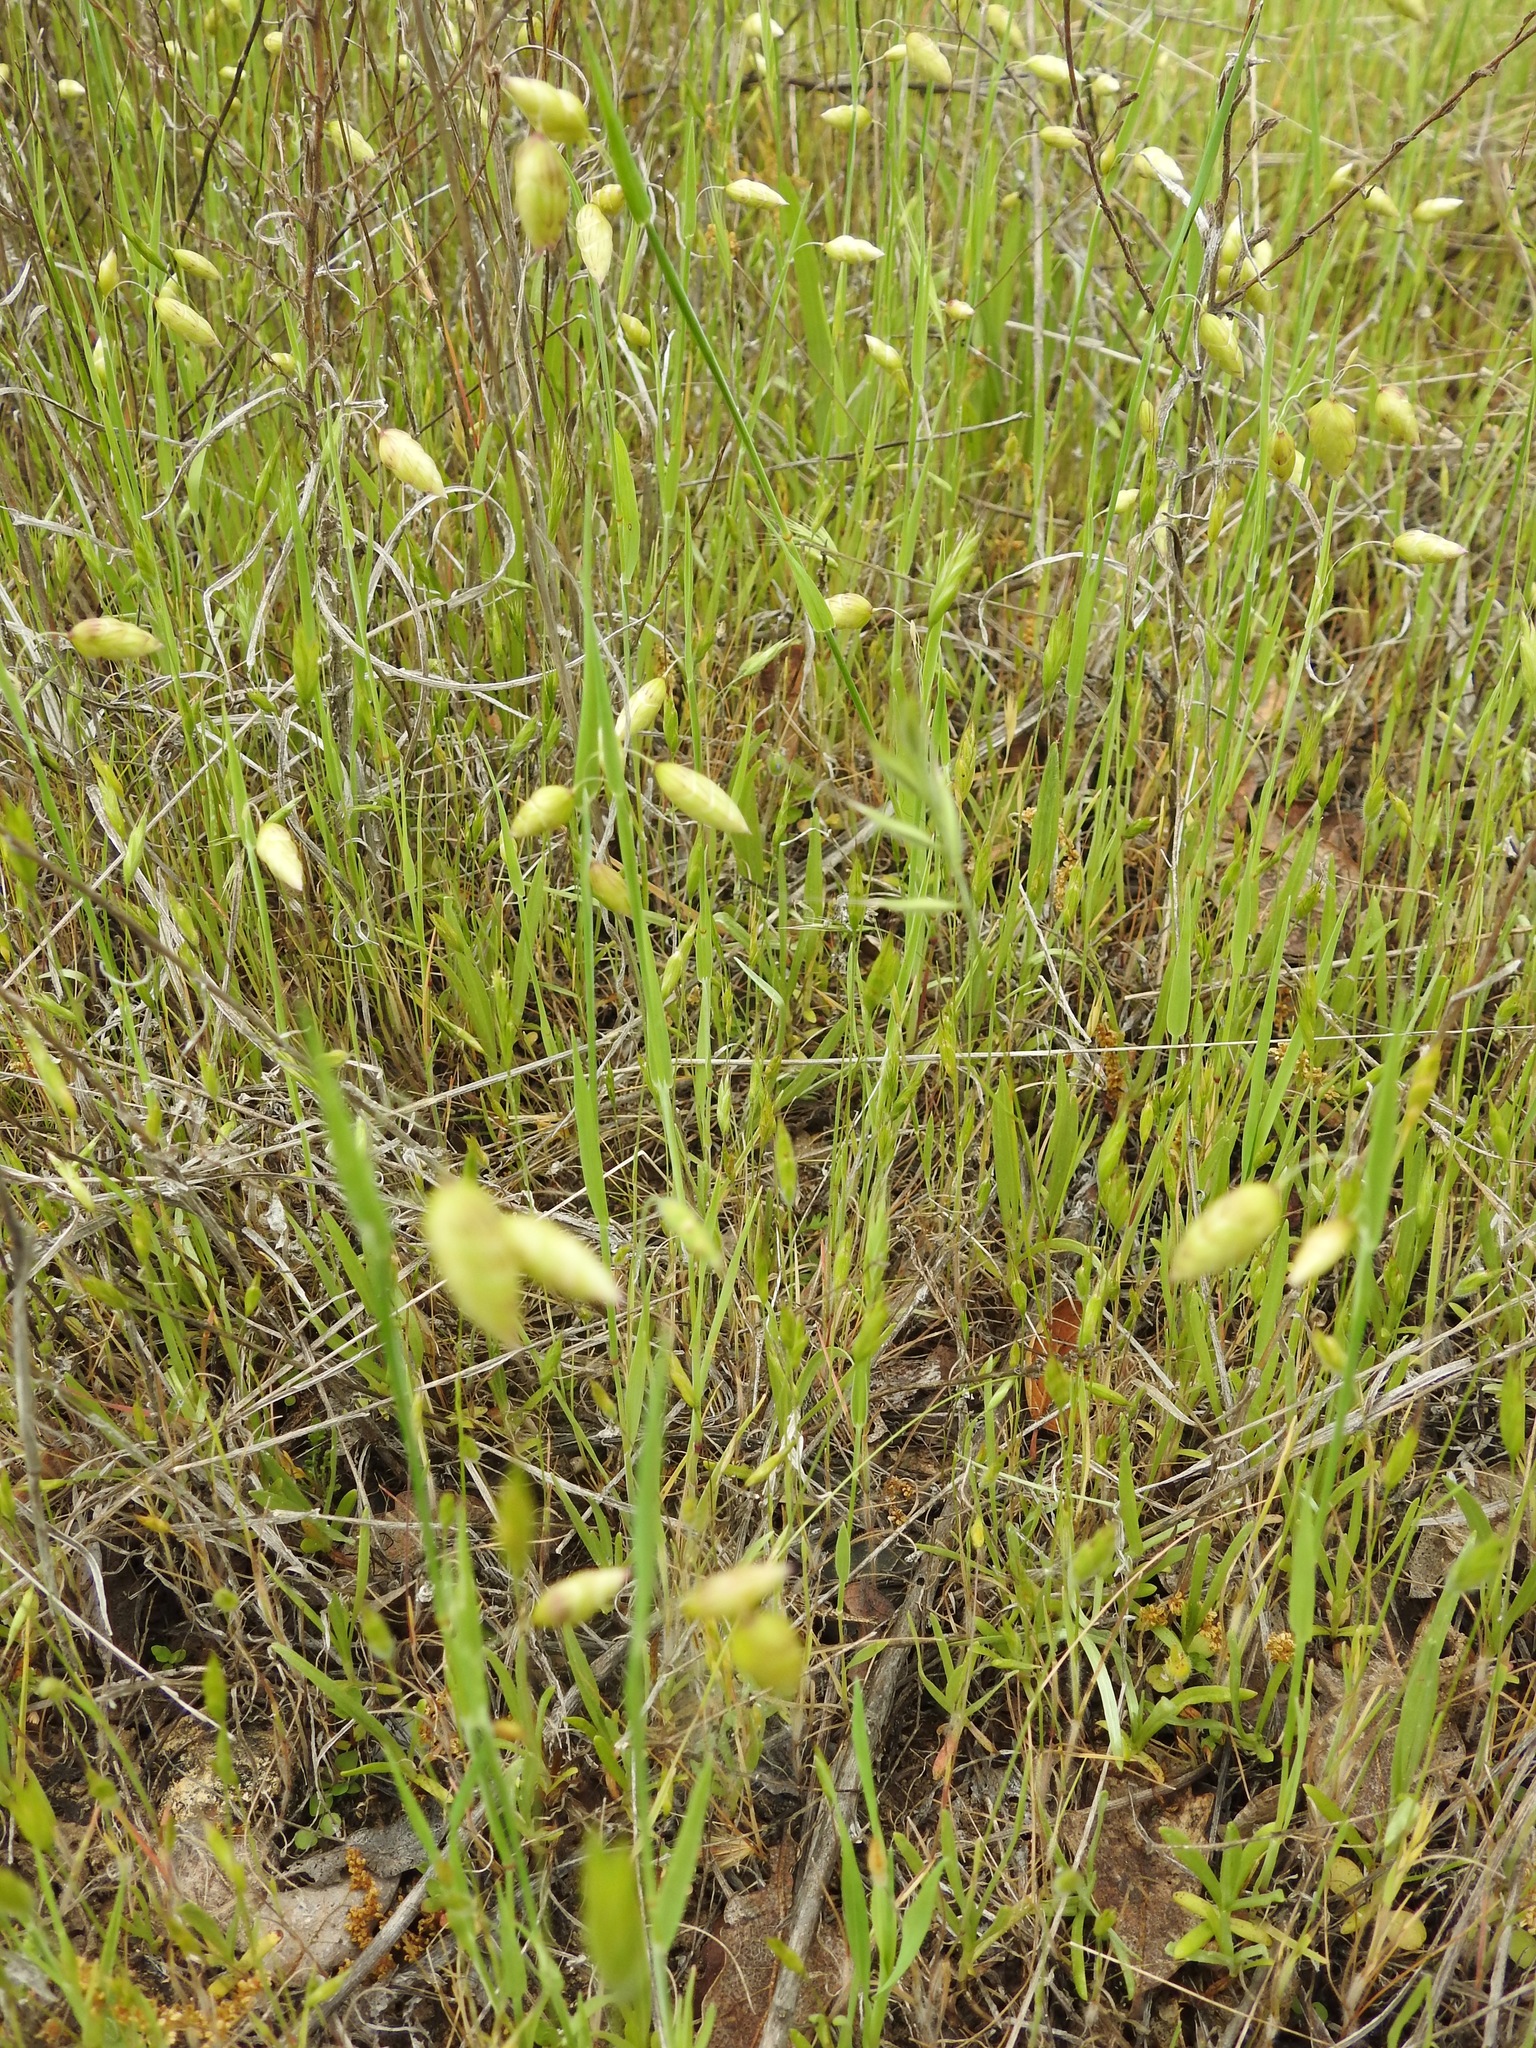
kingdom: Plantae
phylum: Tracheophyta
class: Liliopsida
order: Poales
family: Poaceae
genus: Briza
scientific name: Briza maxima
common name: Big quakinggrass
